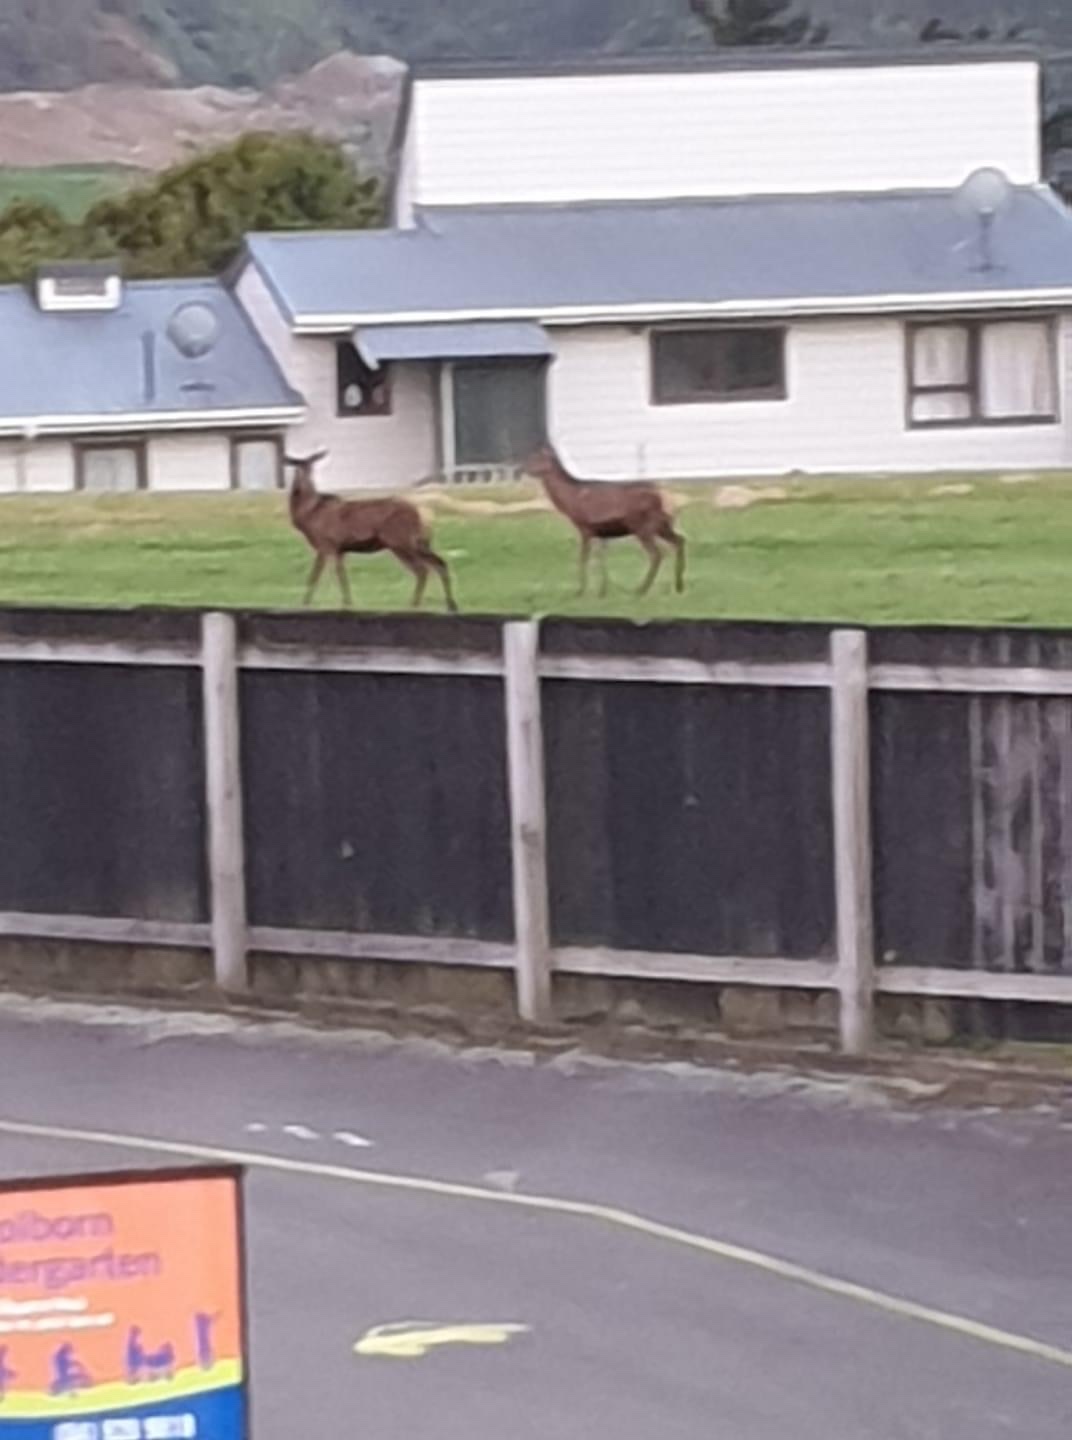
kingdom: Animalia
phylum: Chordata
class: Mammalia
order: Artiodactyla
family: Cervidae
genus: Cervus
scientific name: Cervus elaphus
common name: Red deer
